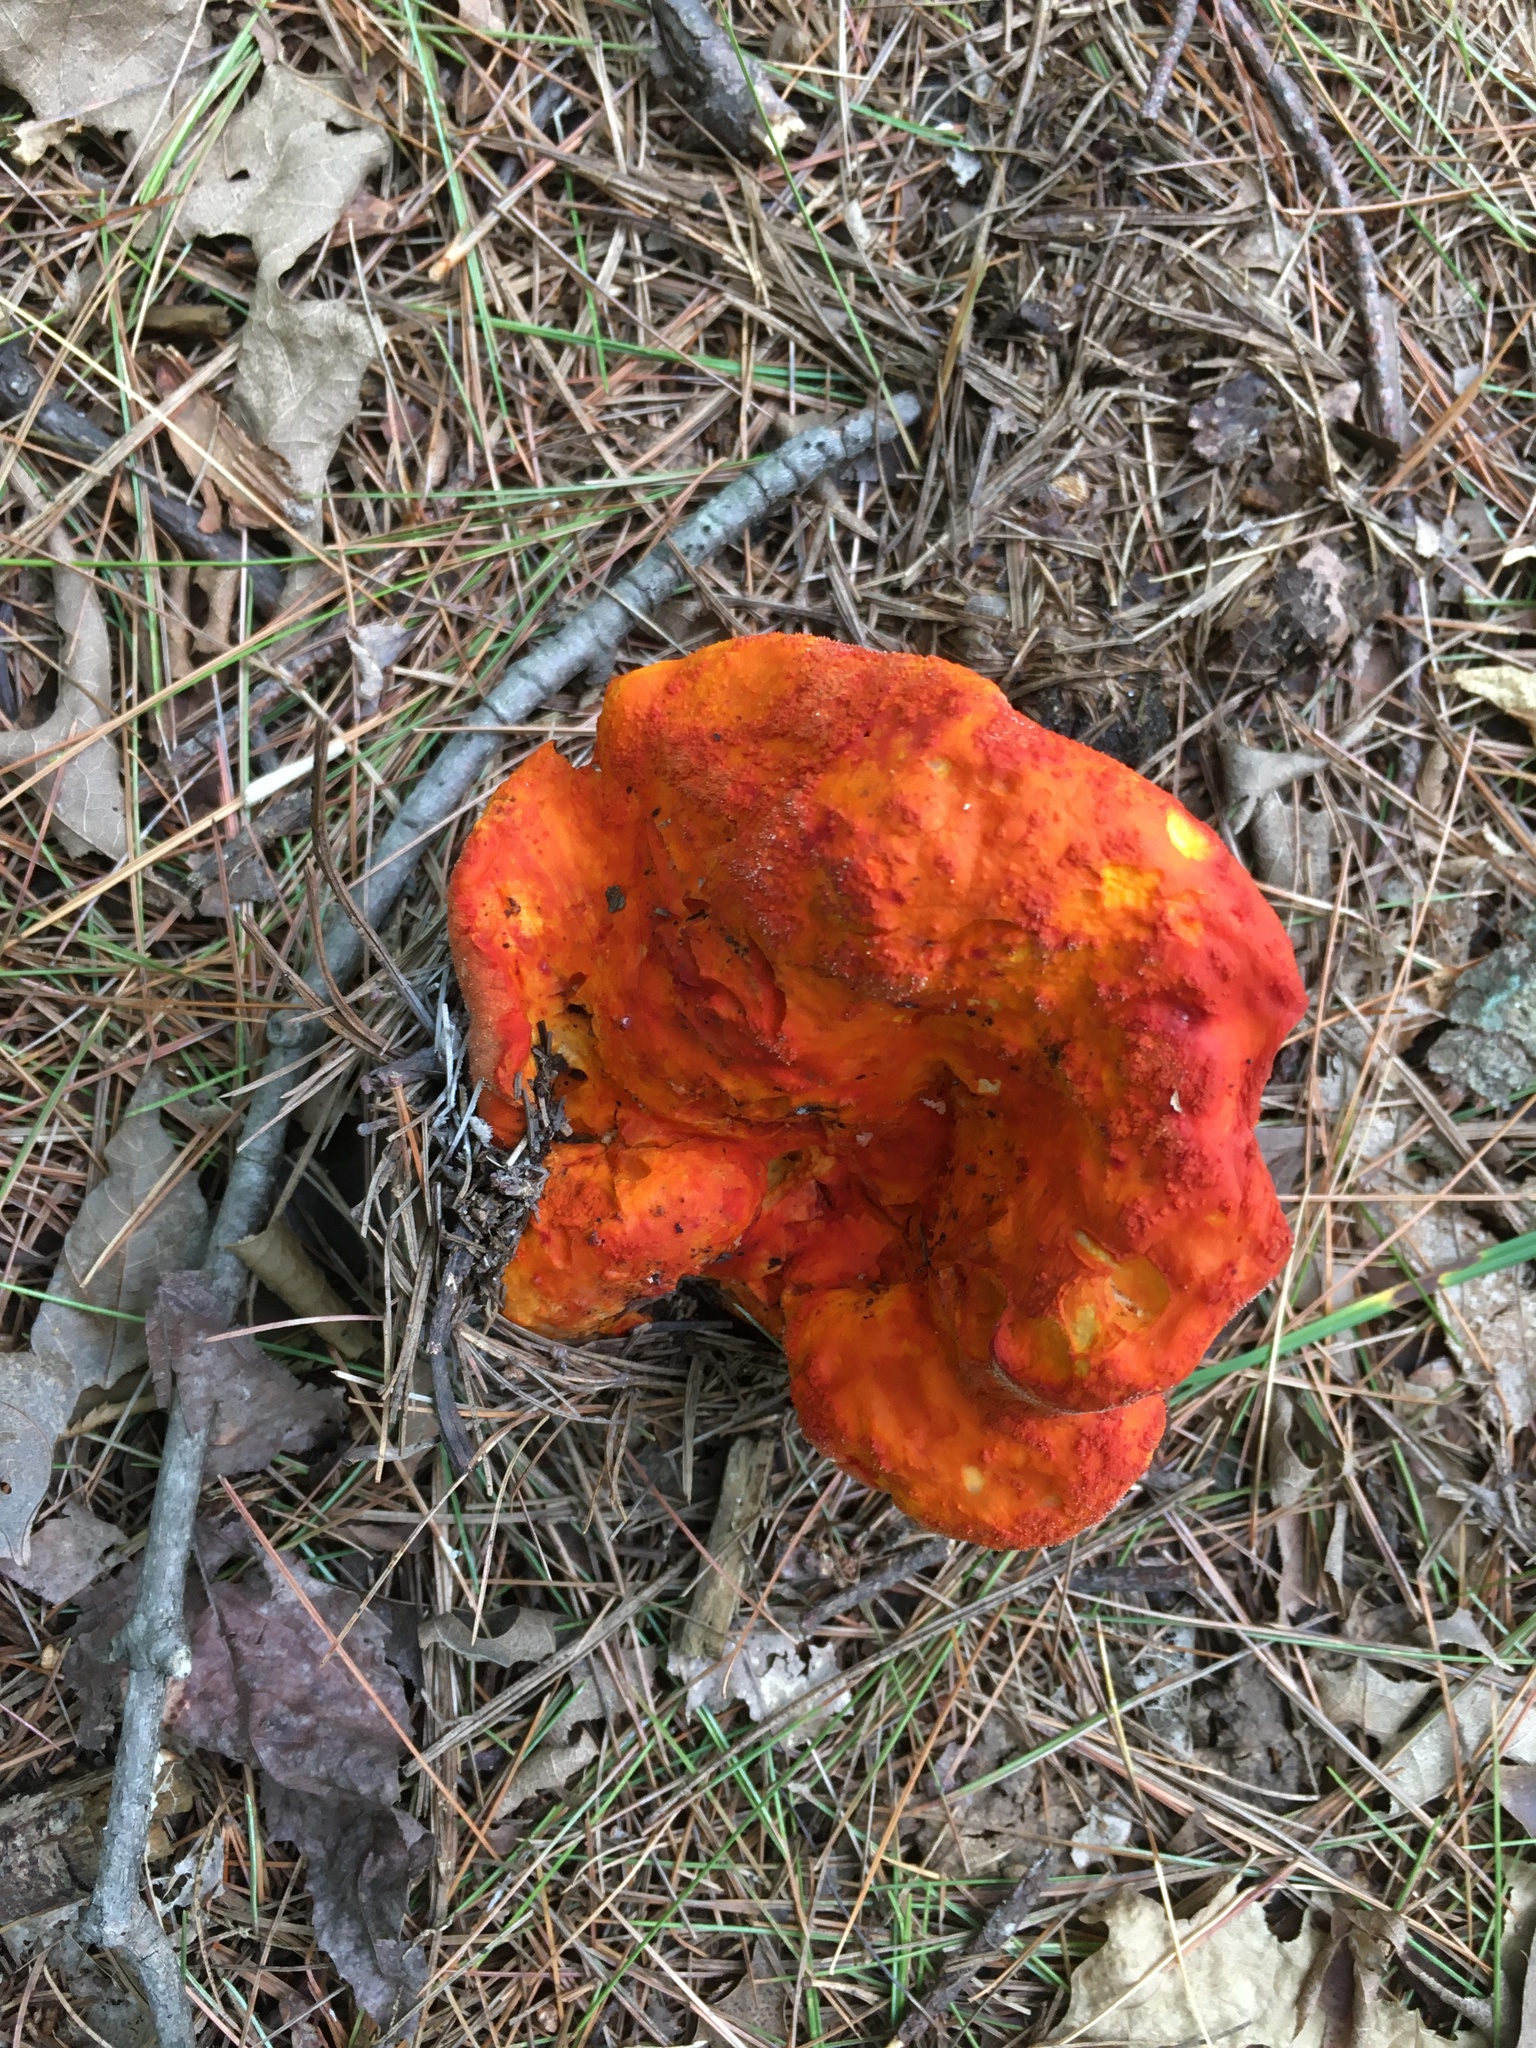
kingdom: Fungi
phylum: Ascomycota
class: Sordariomycetes
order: Hypocreales
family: Hypocreaceae
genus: Hypomyces
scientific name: Hypomyces lactifluorum
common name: Lobster mushroom
